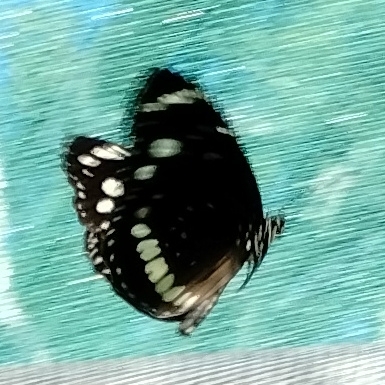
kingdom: Animalia
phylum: Arthropoda
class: Insecta
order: Lepidoptera
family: Nymphalidae
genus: Euploea
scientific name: Euploea core
